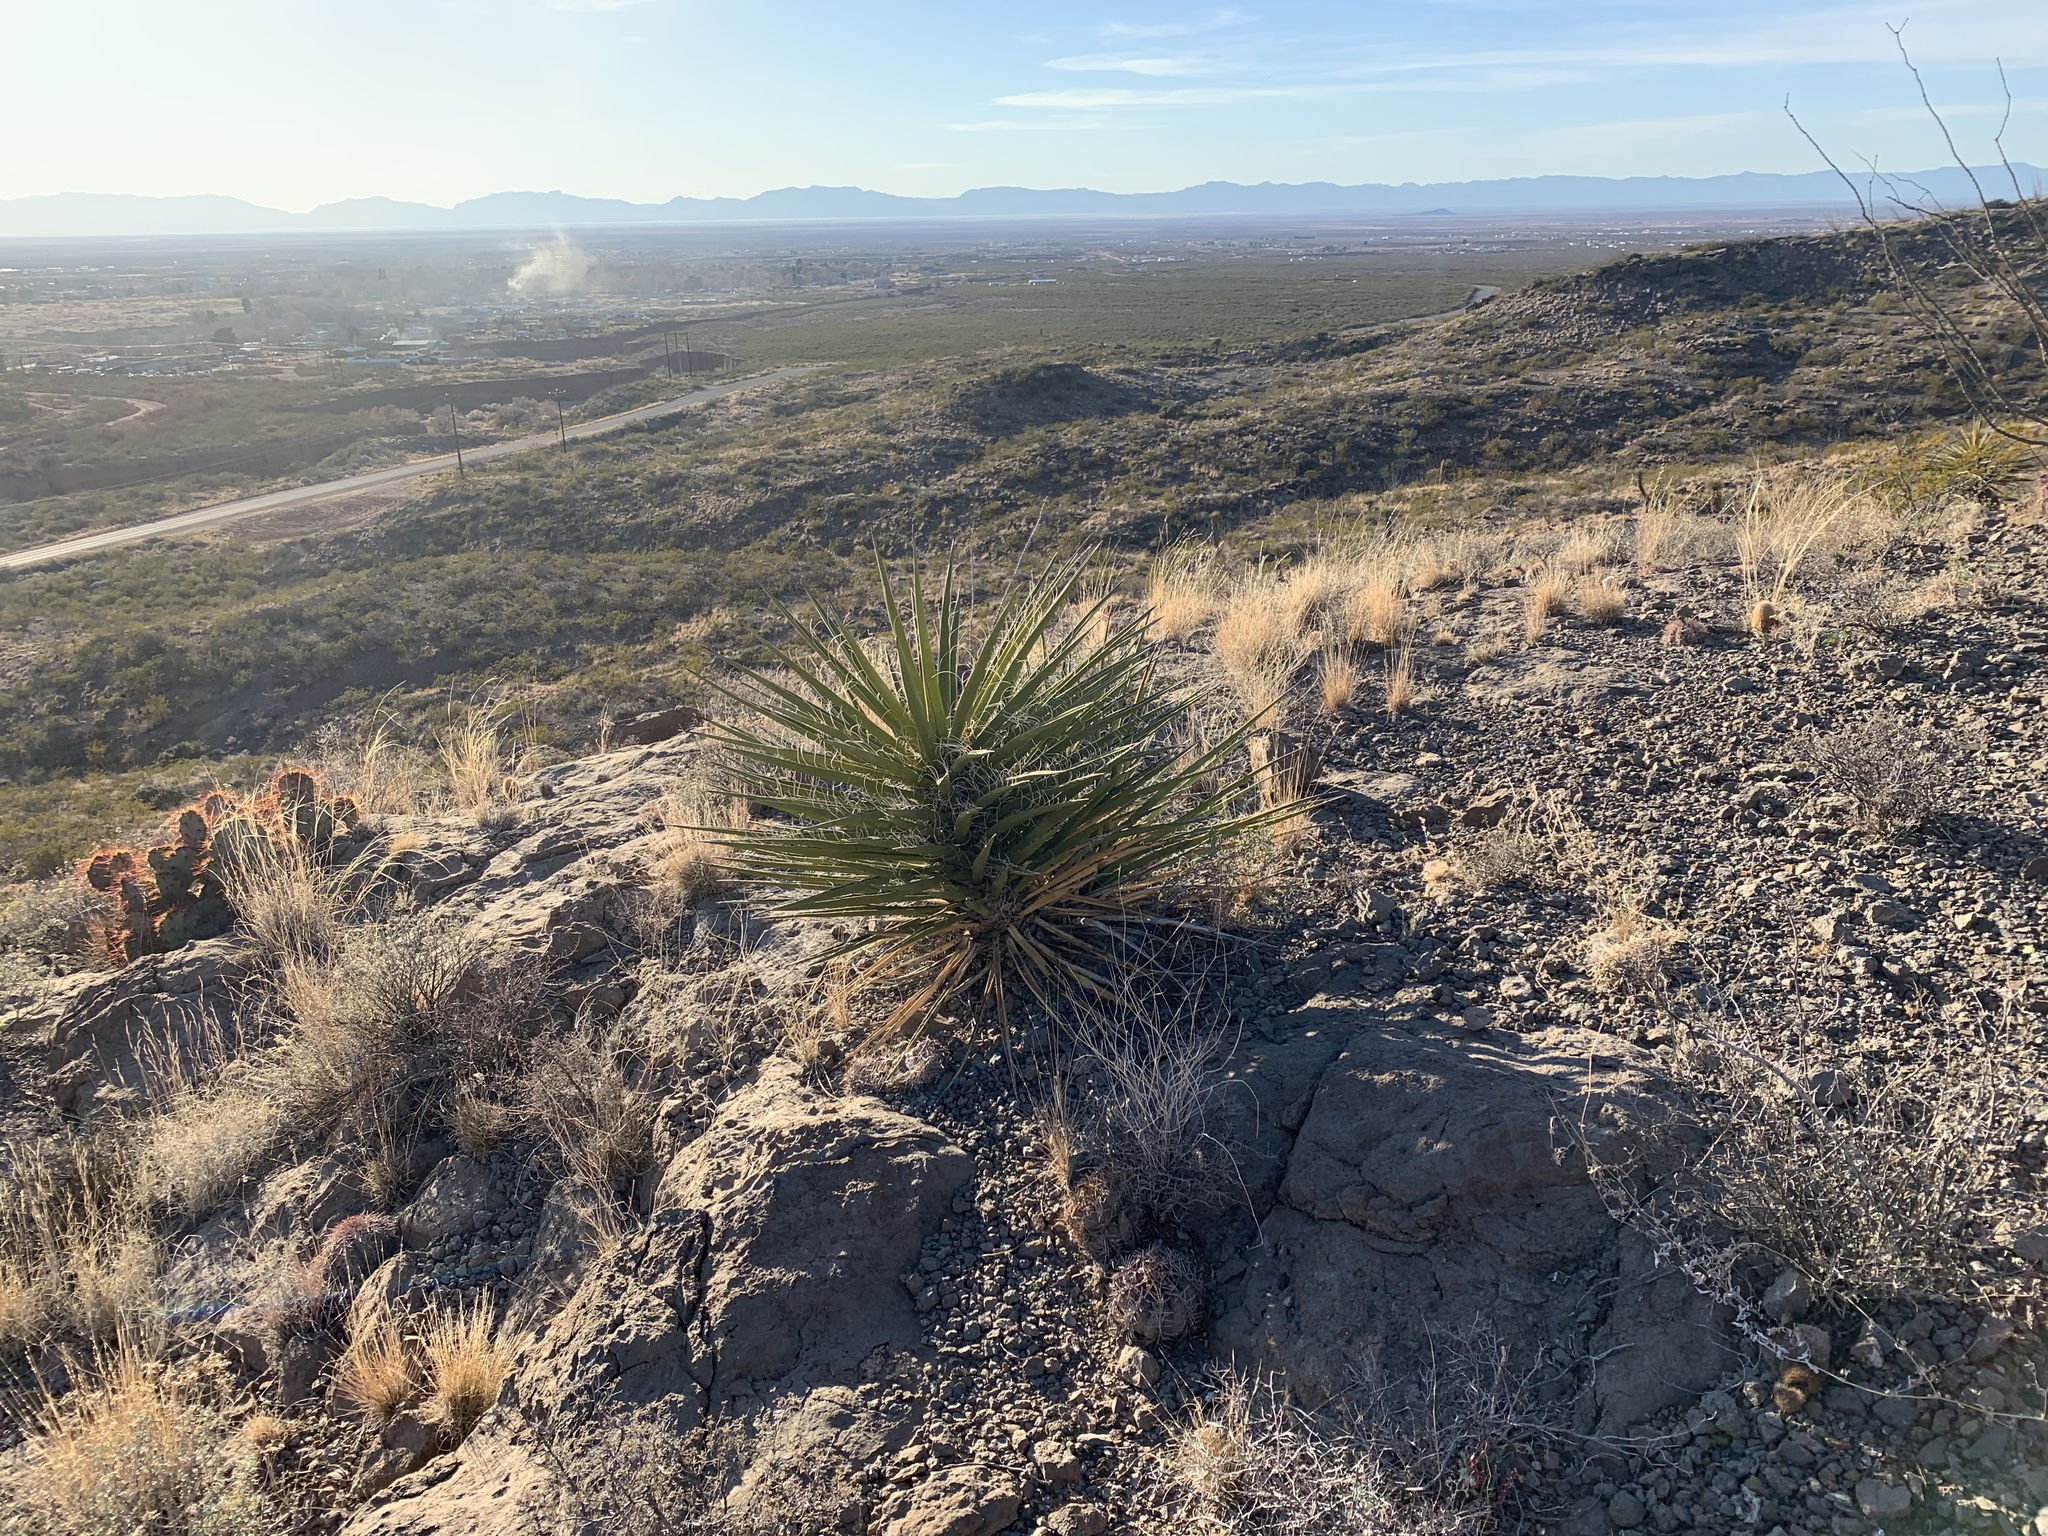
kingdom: Plantae
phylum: Tracheophyta
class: Liliopsida
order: Asparagales
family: Asparagaceae
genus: Yucca
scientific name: Yucca treculiana
